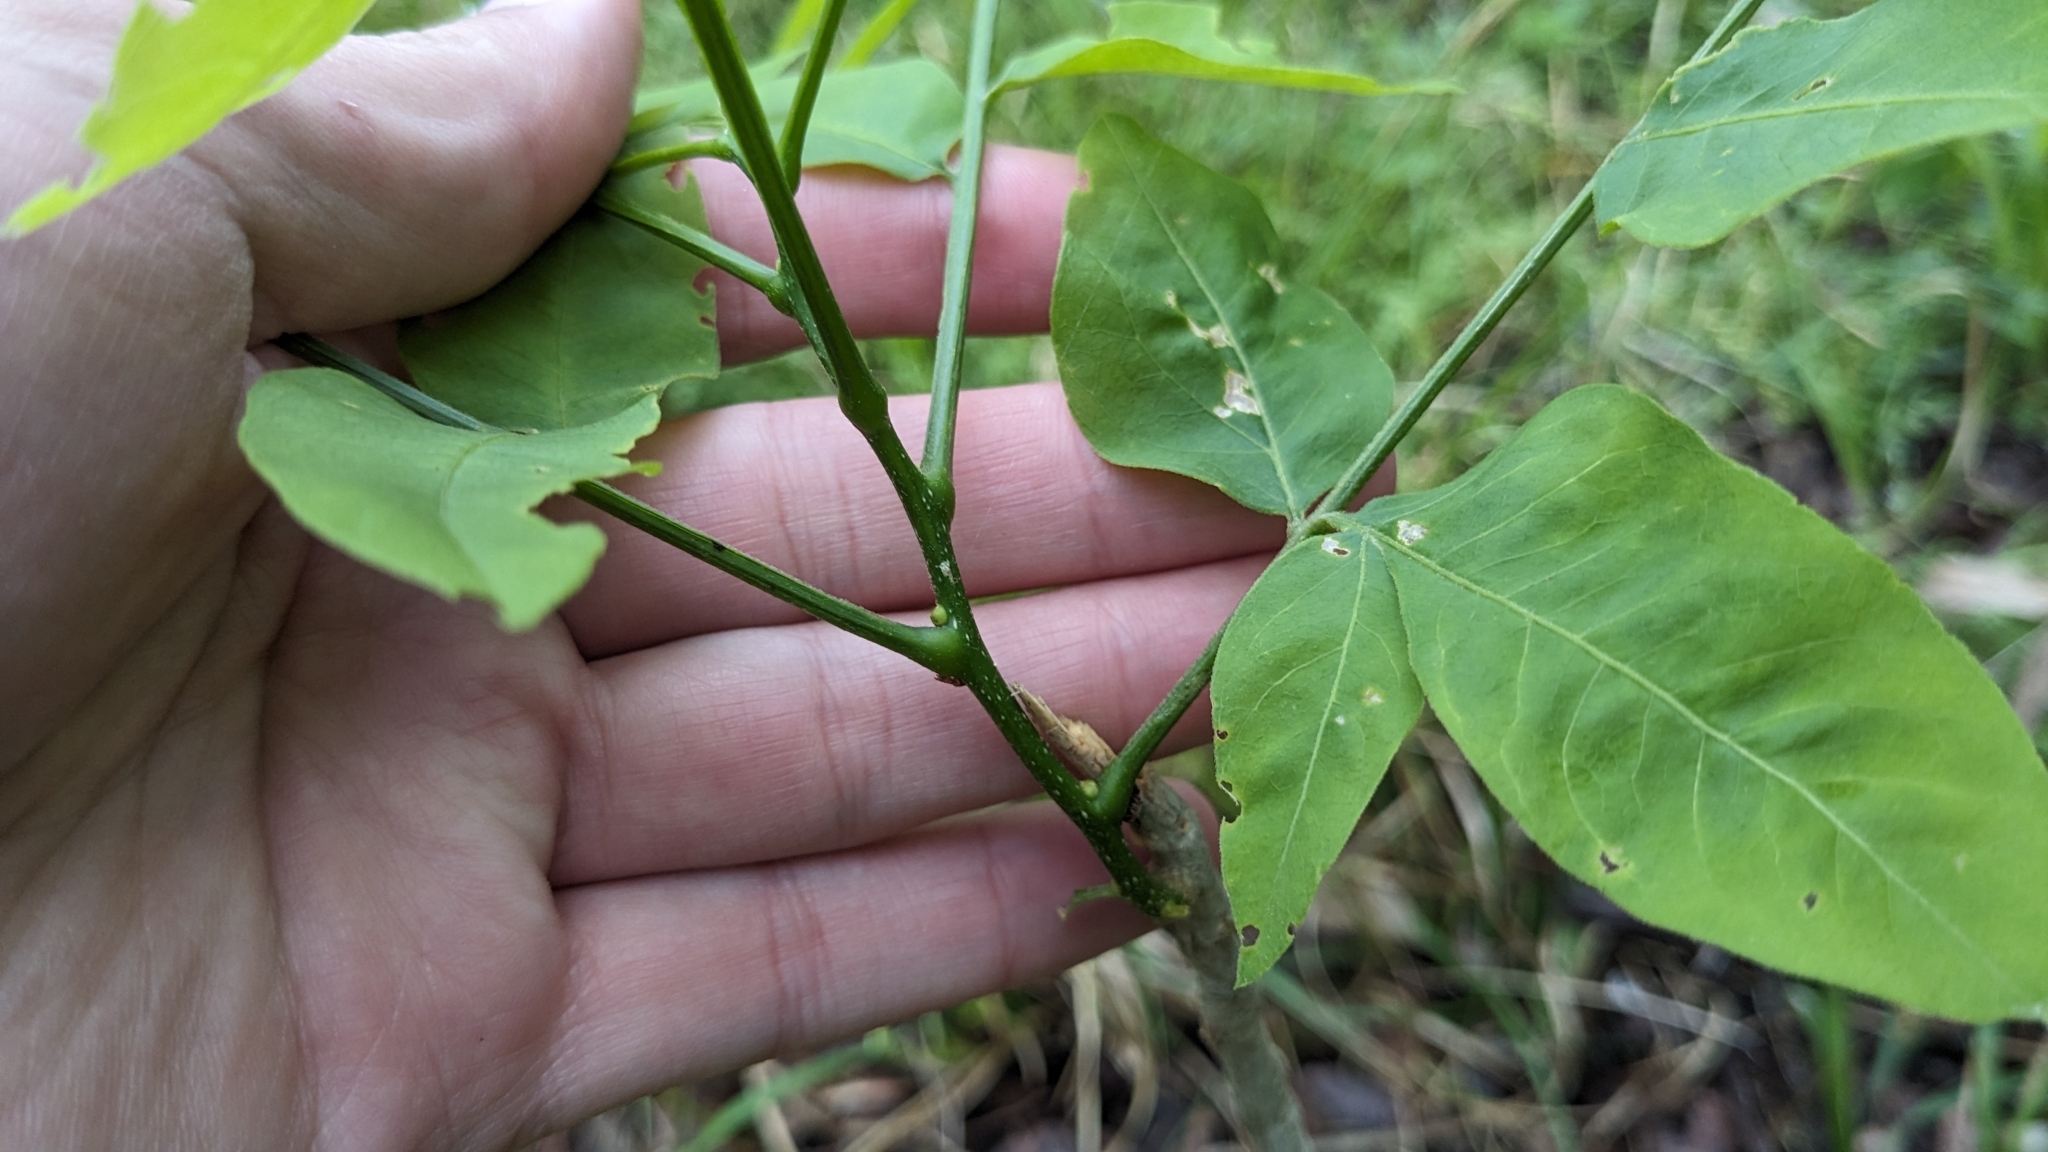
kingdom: Plantae
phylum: Tracheophyta
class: Magnoliopsida
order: Sapindales
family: Sapindaceae
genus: Sapindus
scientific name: Sapindus drummondii
